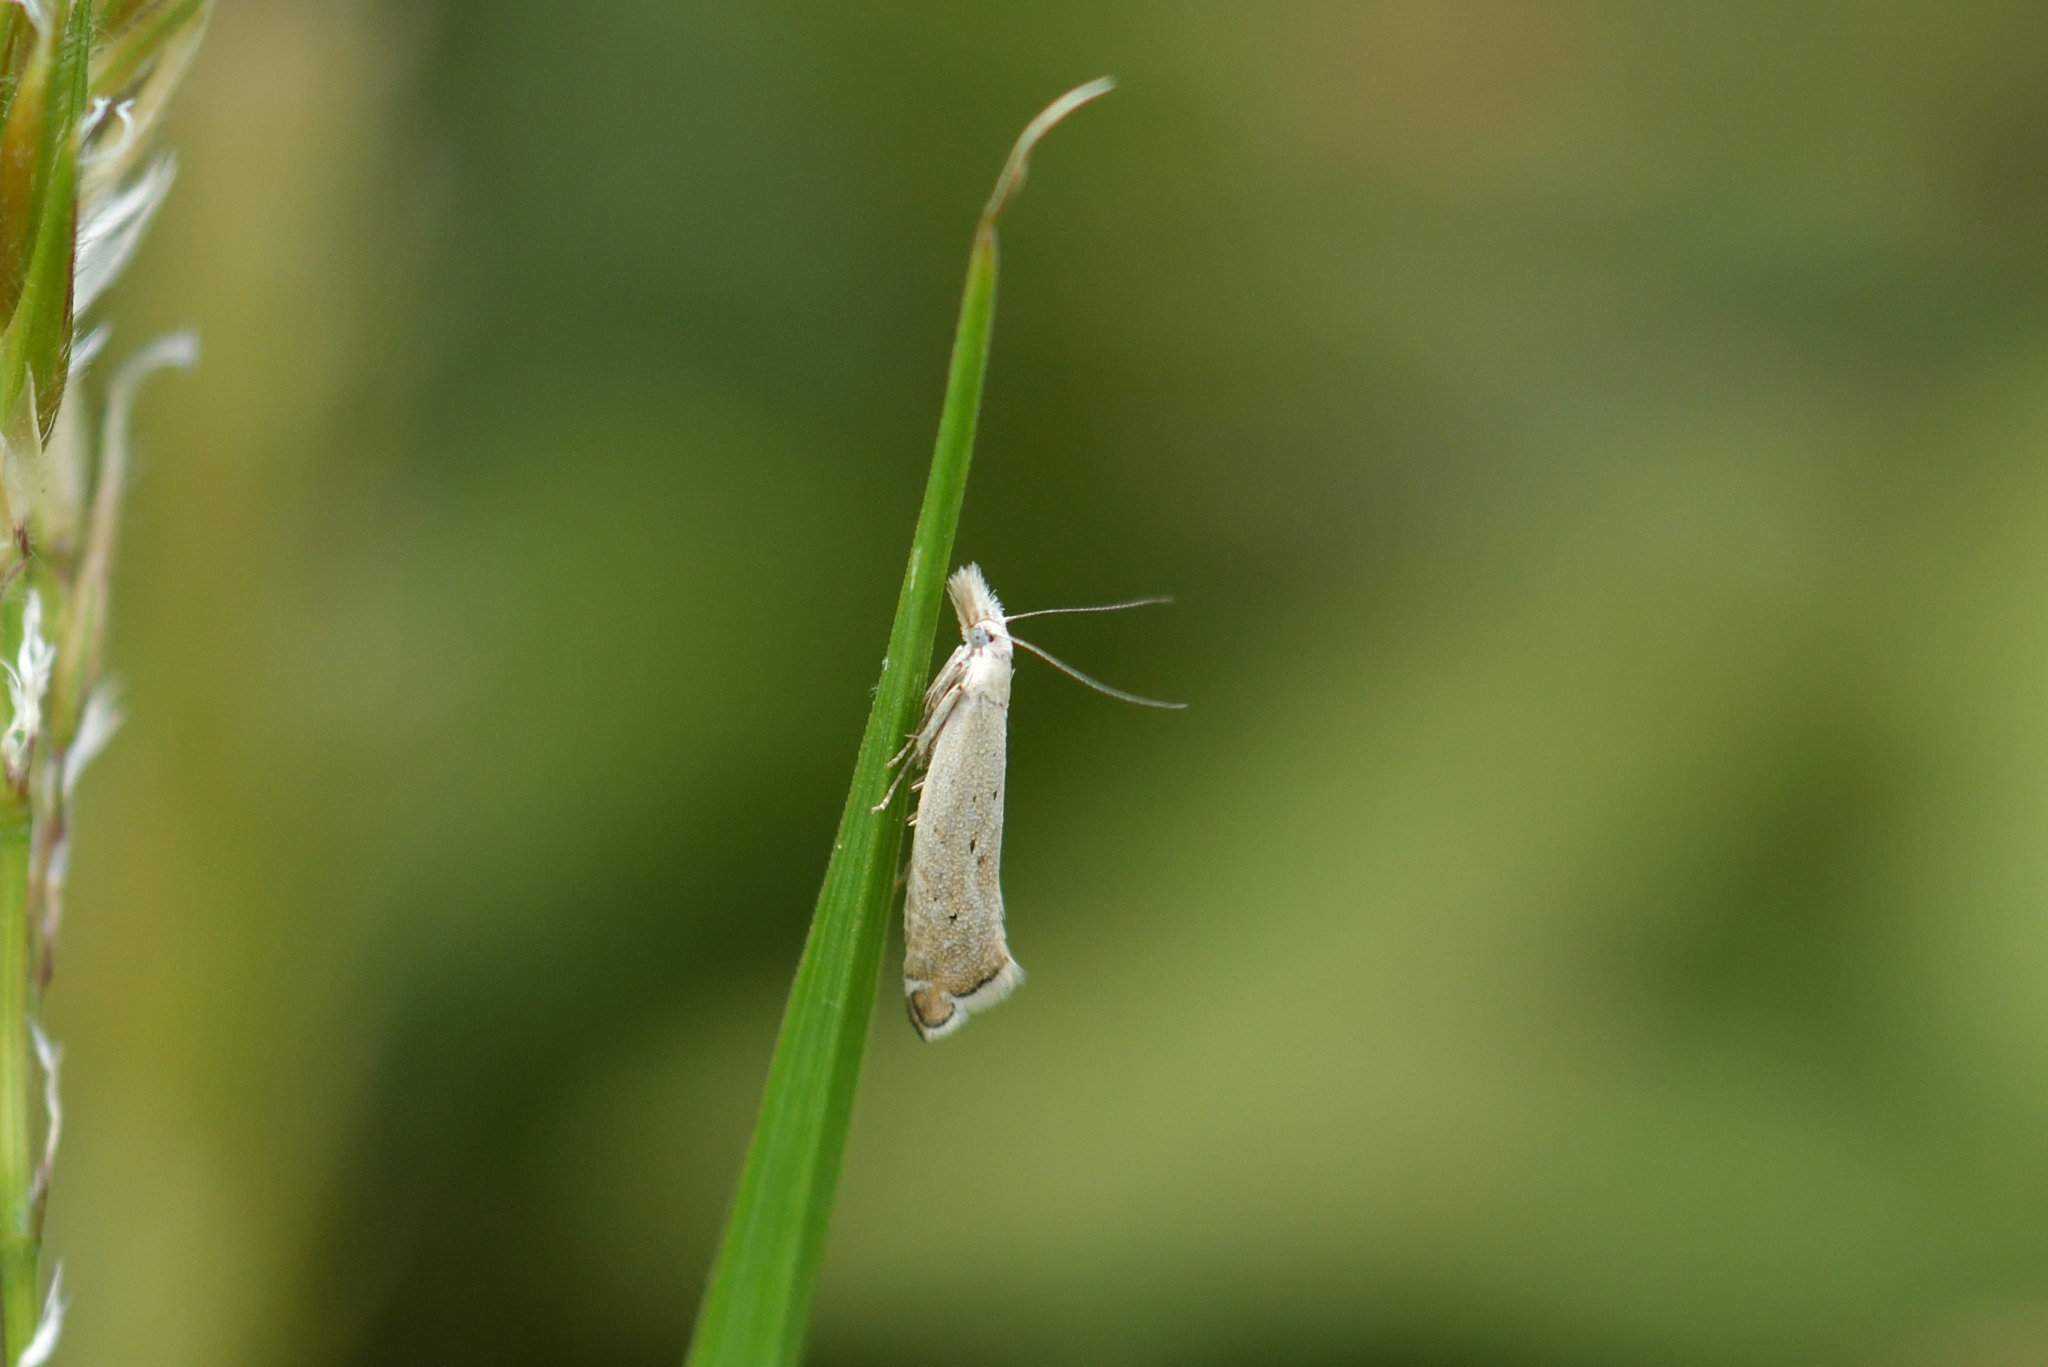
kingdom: Animalia
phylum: Arthropoda
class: Insecta
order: Lepidoptera
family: Glyphipterigidae
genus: Glyphipterix
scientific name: Glyphipterix achlyoessa
